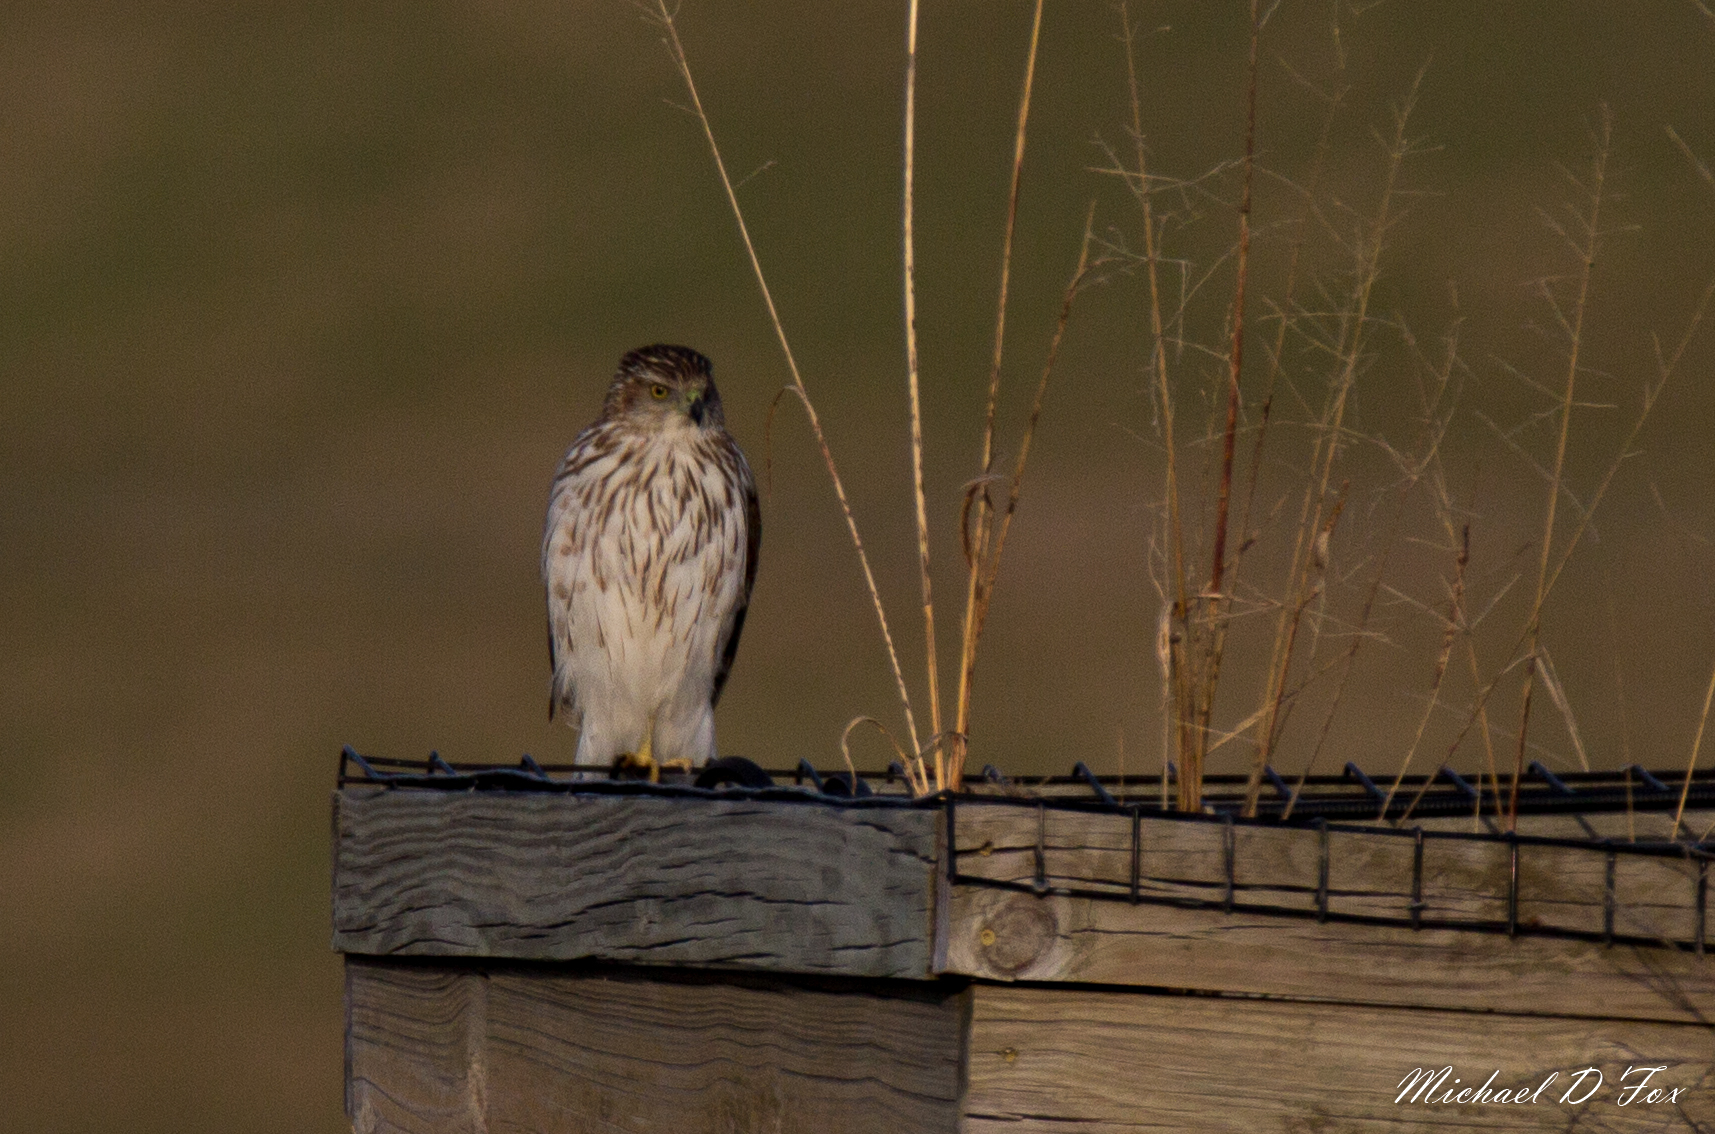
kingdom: Animalia
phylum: Chordata
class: Aves
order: Accipitriformes
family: Accipitridae
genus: Accipiter
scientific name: Accipiter cooperii
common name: Cooper's hawk
